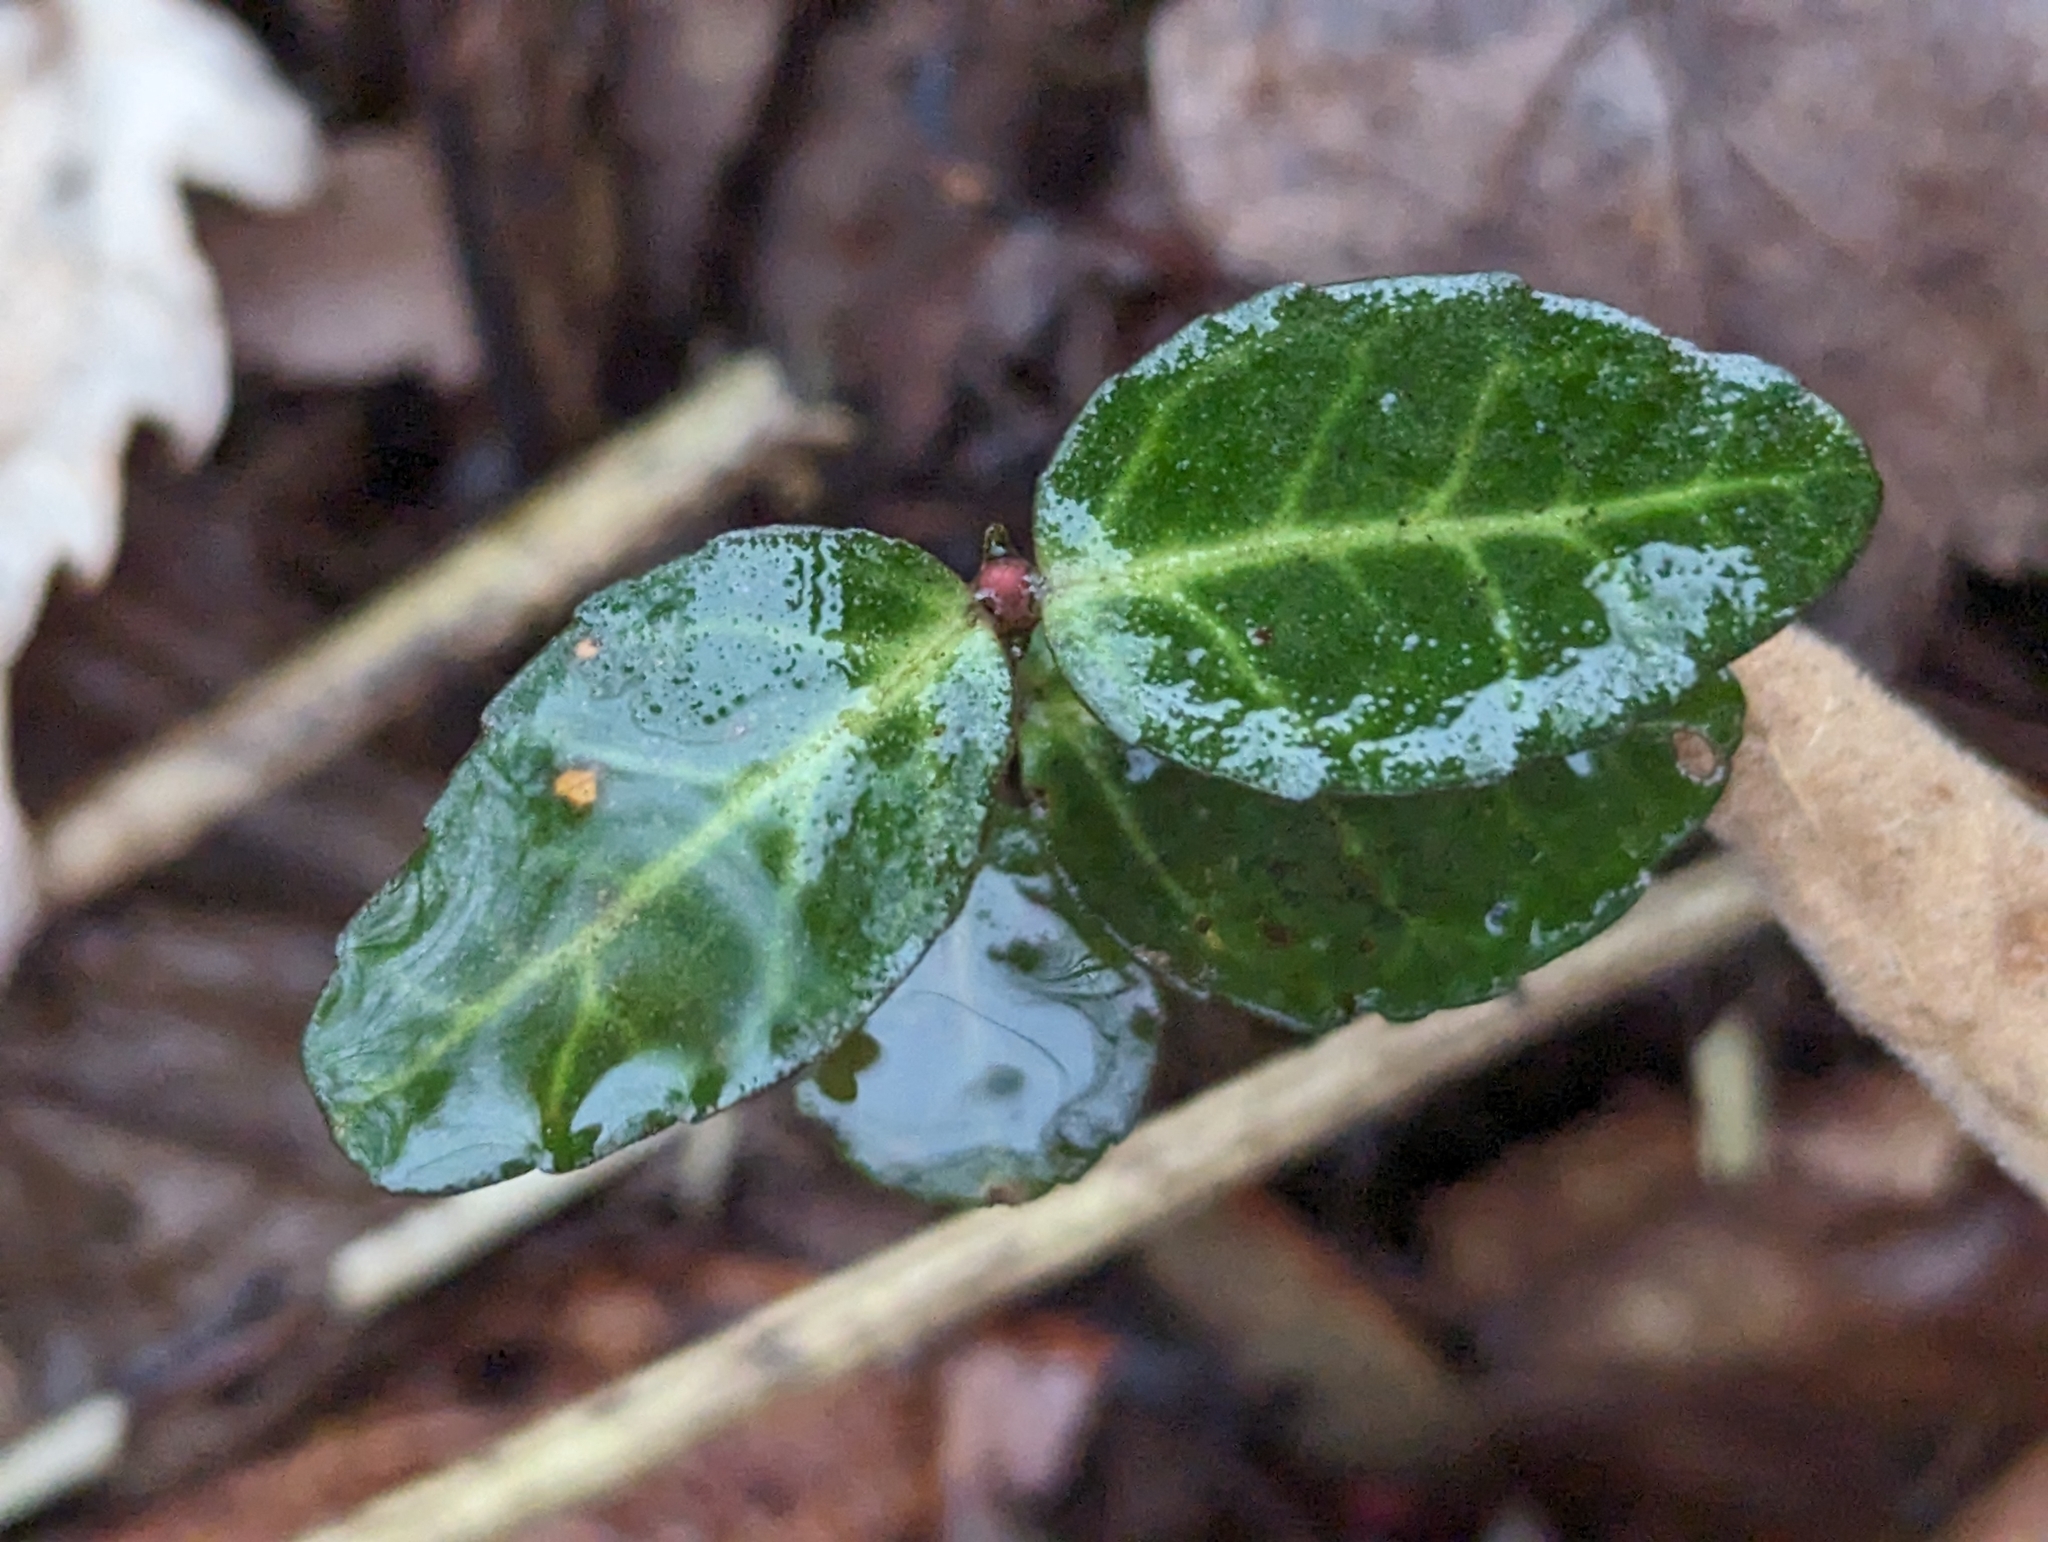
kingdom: Plantae
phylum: Tracheophyta
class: Magnoliopsida
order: Celastrales
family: Celastraceae
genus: Euonymus
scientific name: Euonymus fortunei
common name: Climbing euonymus
